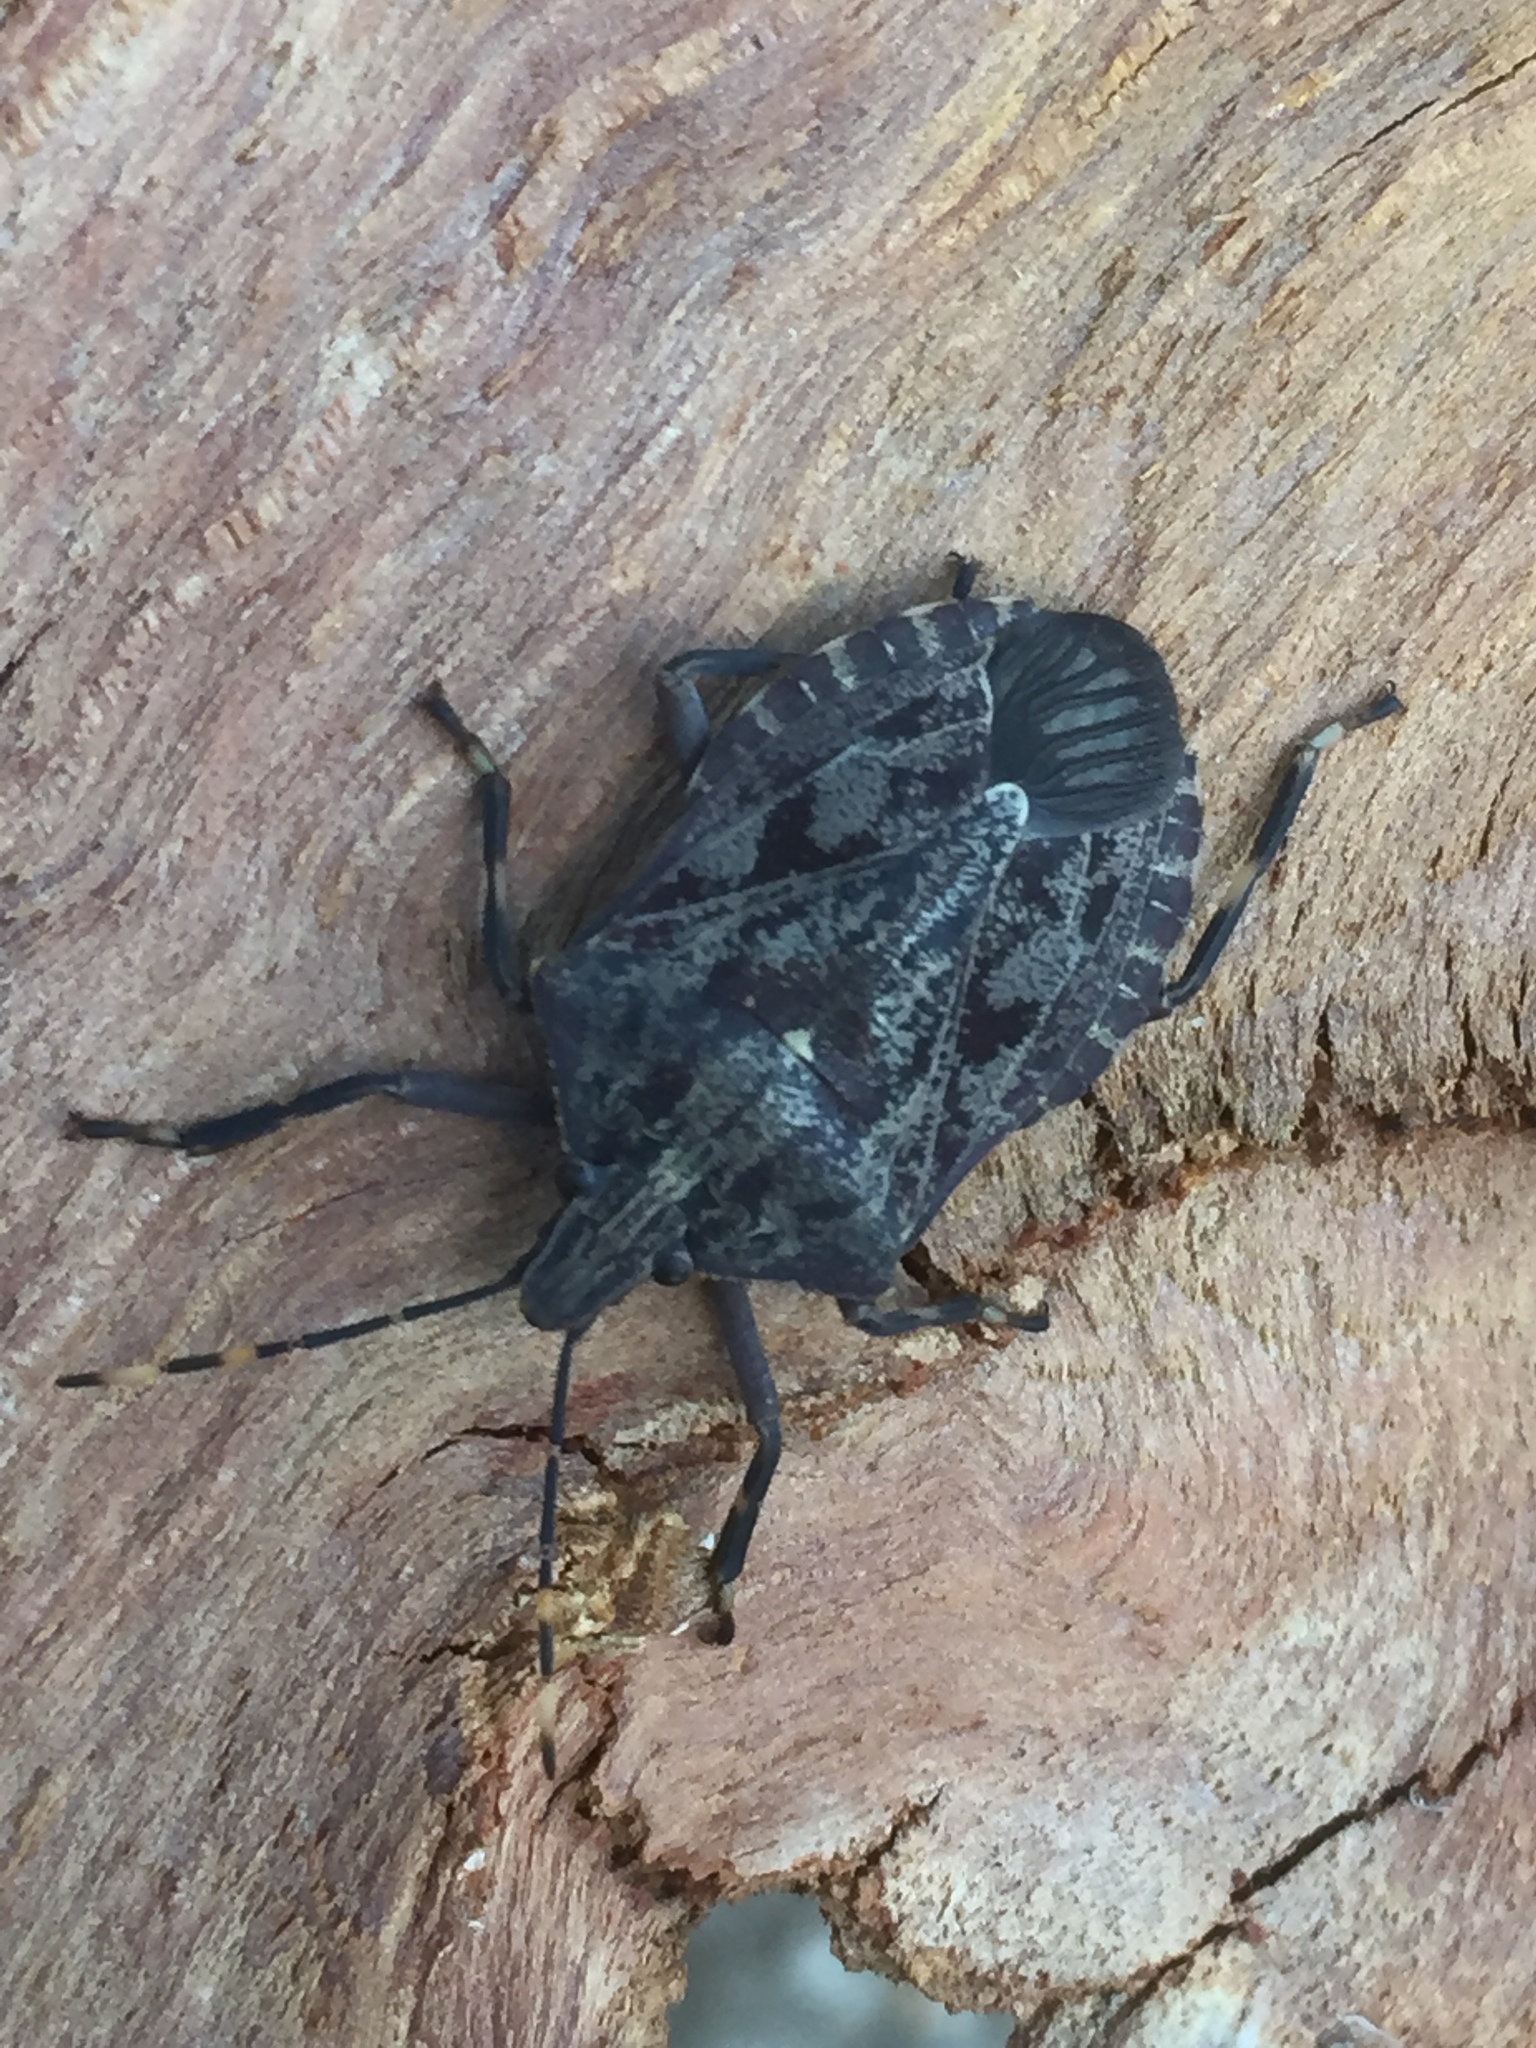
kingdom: Animalia
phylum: Arthropoda
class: Insecta
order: Hemiptera
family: Pentatomidae
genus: Coenomorpha
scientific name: Coenomorpha nervosa
